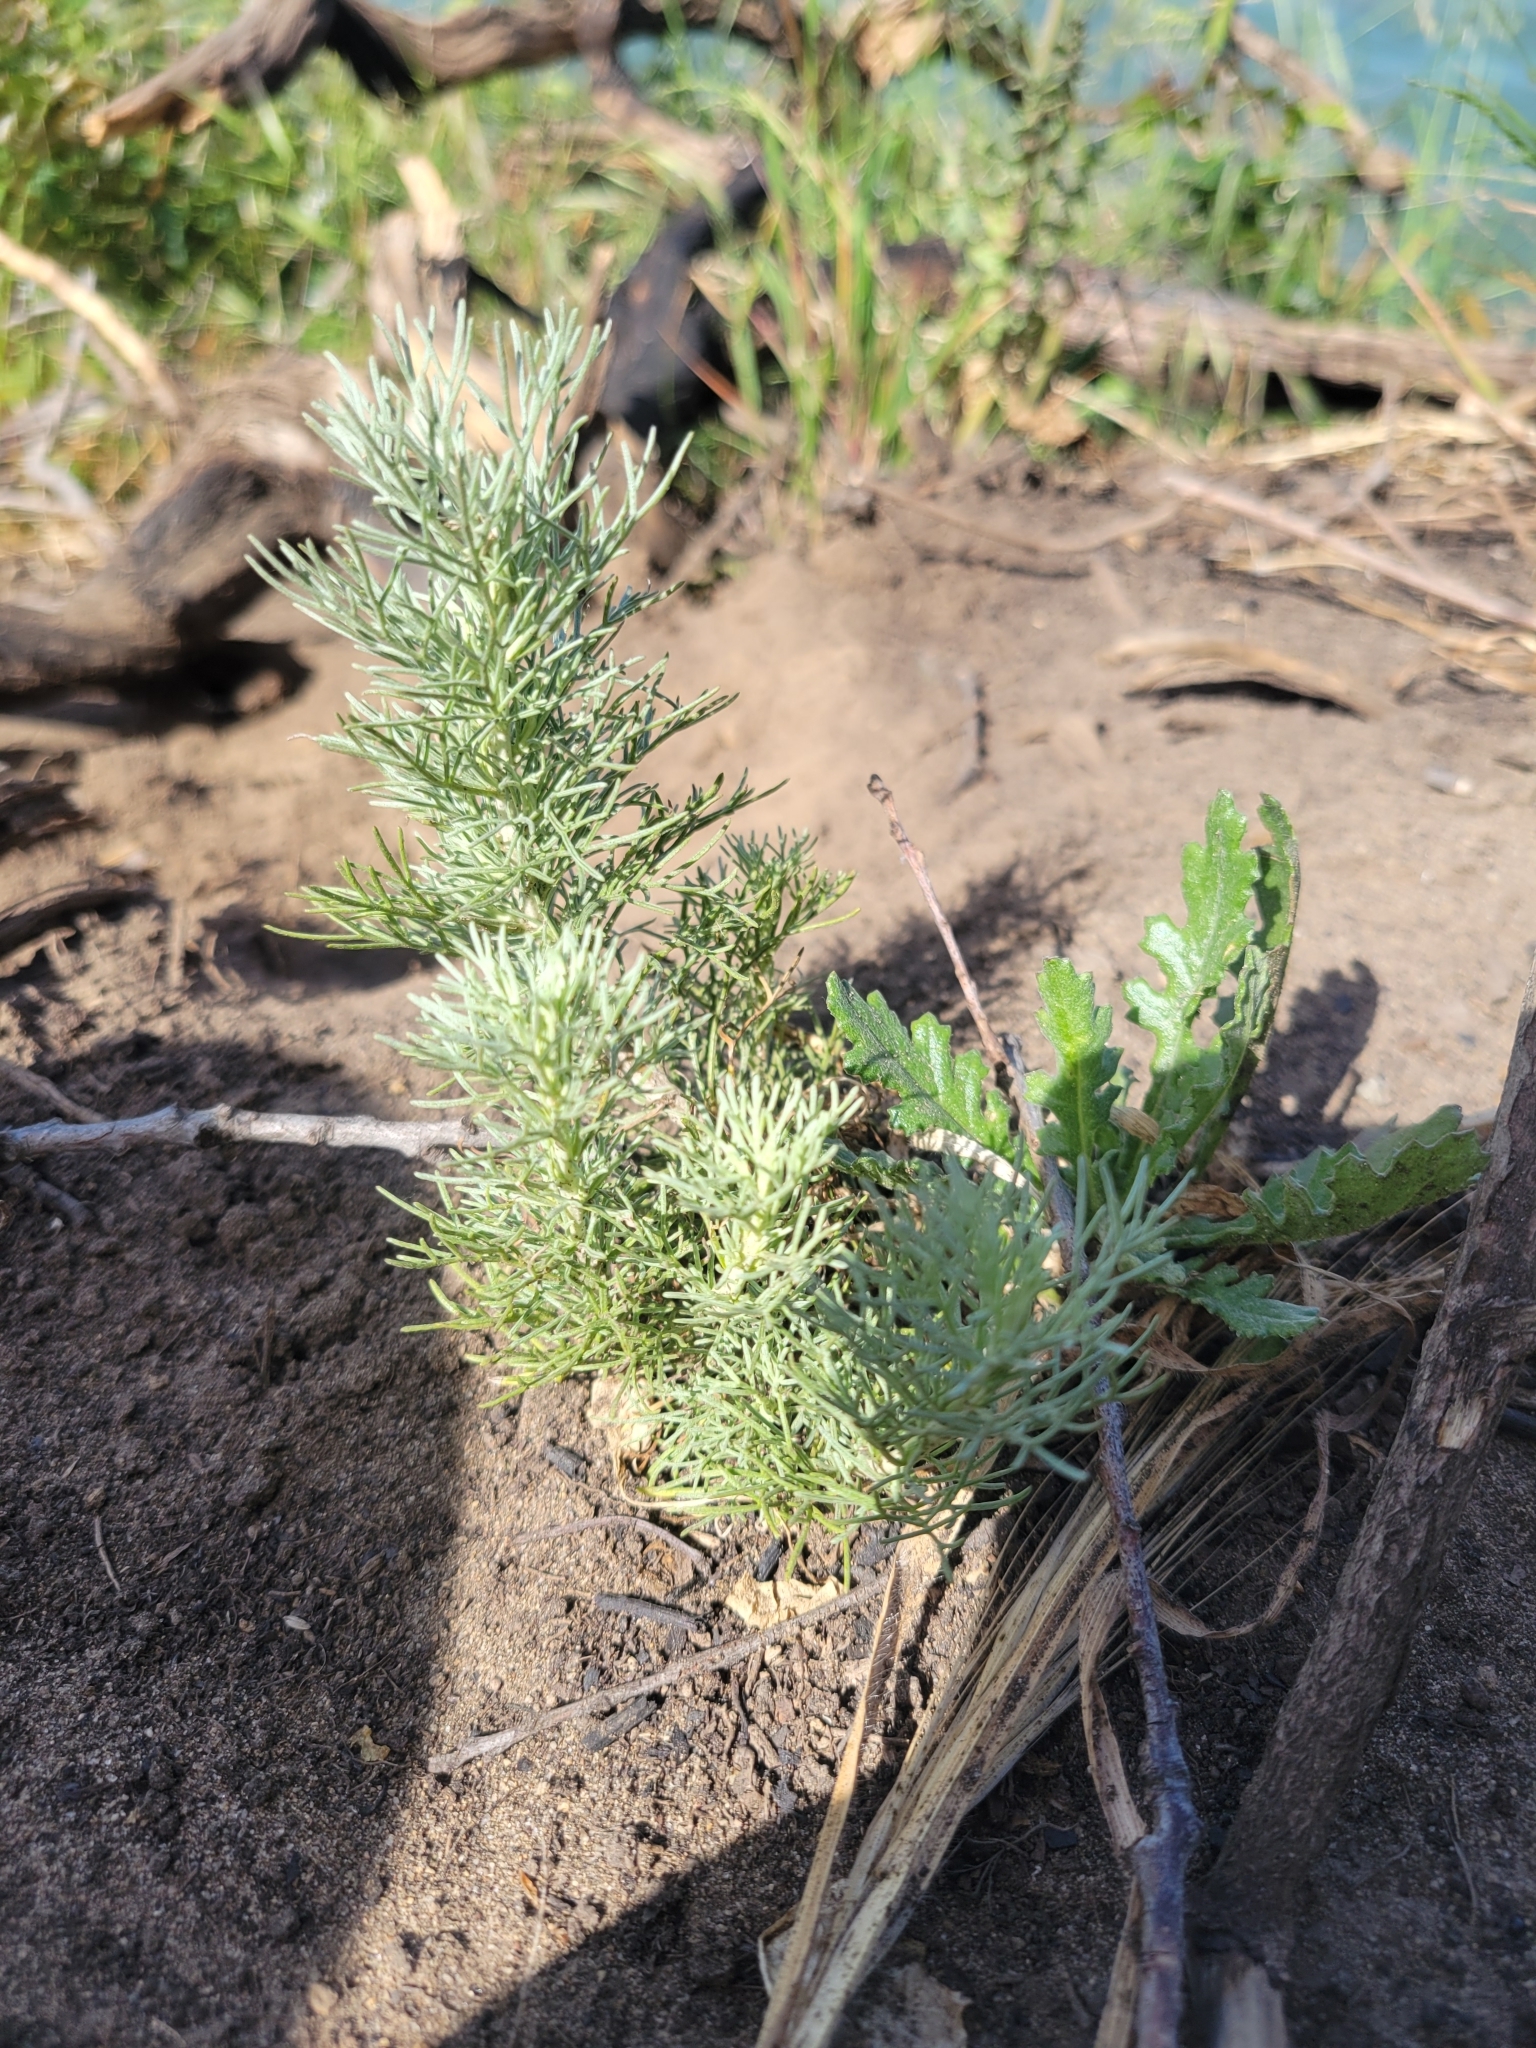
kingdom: Plantae
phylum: Tracheophyta
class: Magnoliopsida
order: Asterales
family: Asteraceae
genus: Artemisia
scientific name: Artemisia californica
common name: California sagebrush
